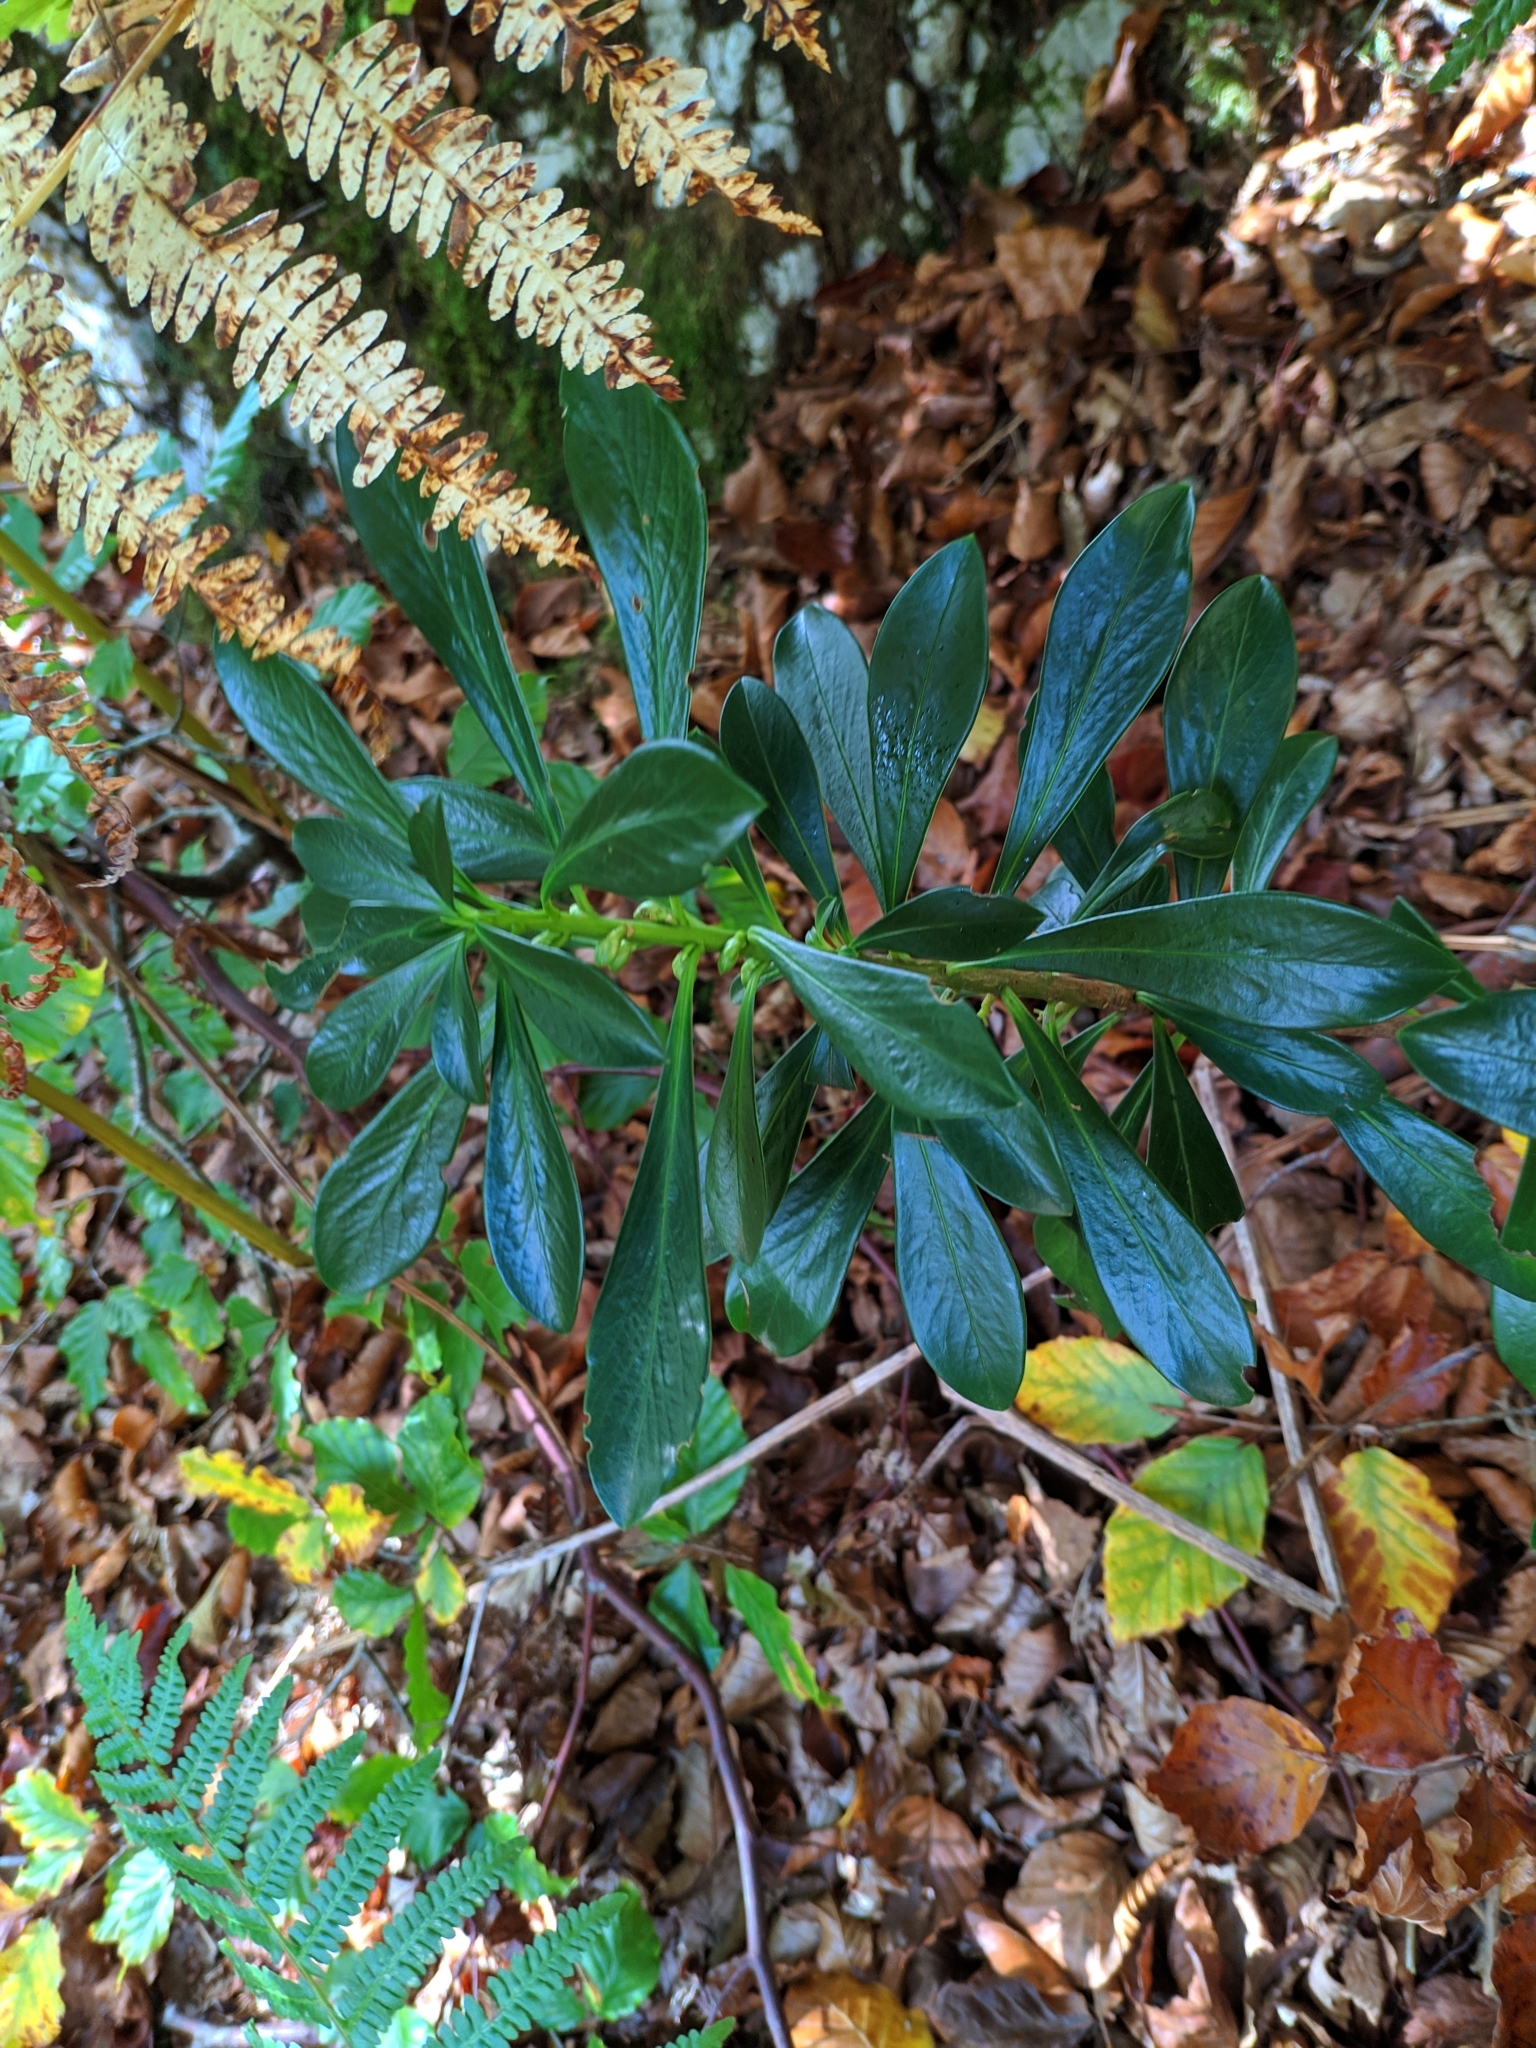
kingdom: Plantae
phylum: Tracheophyta
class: Magnoliopsida
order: Malvales
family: Thymelaeaceae
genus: Daphne
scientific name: Daphne laureola
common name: Spurge-laurel
